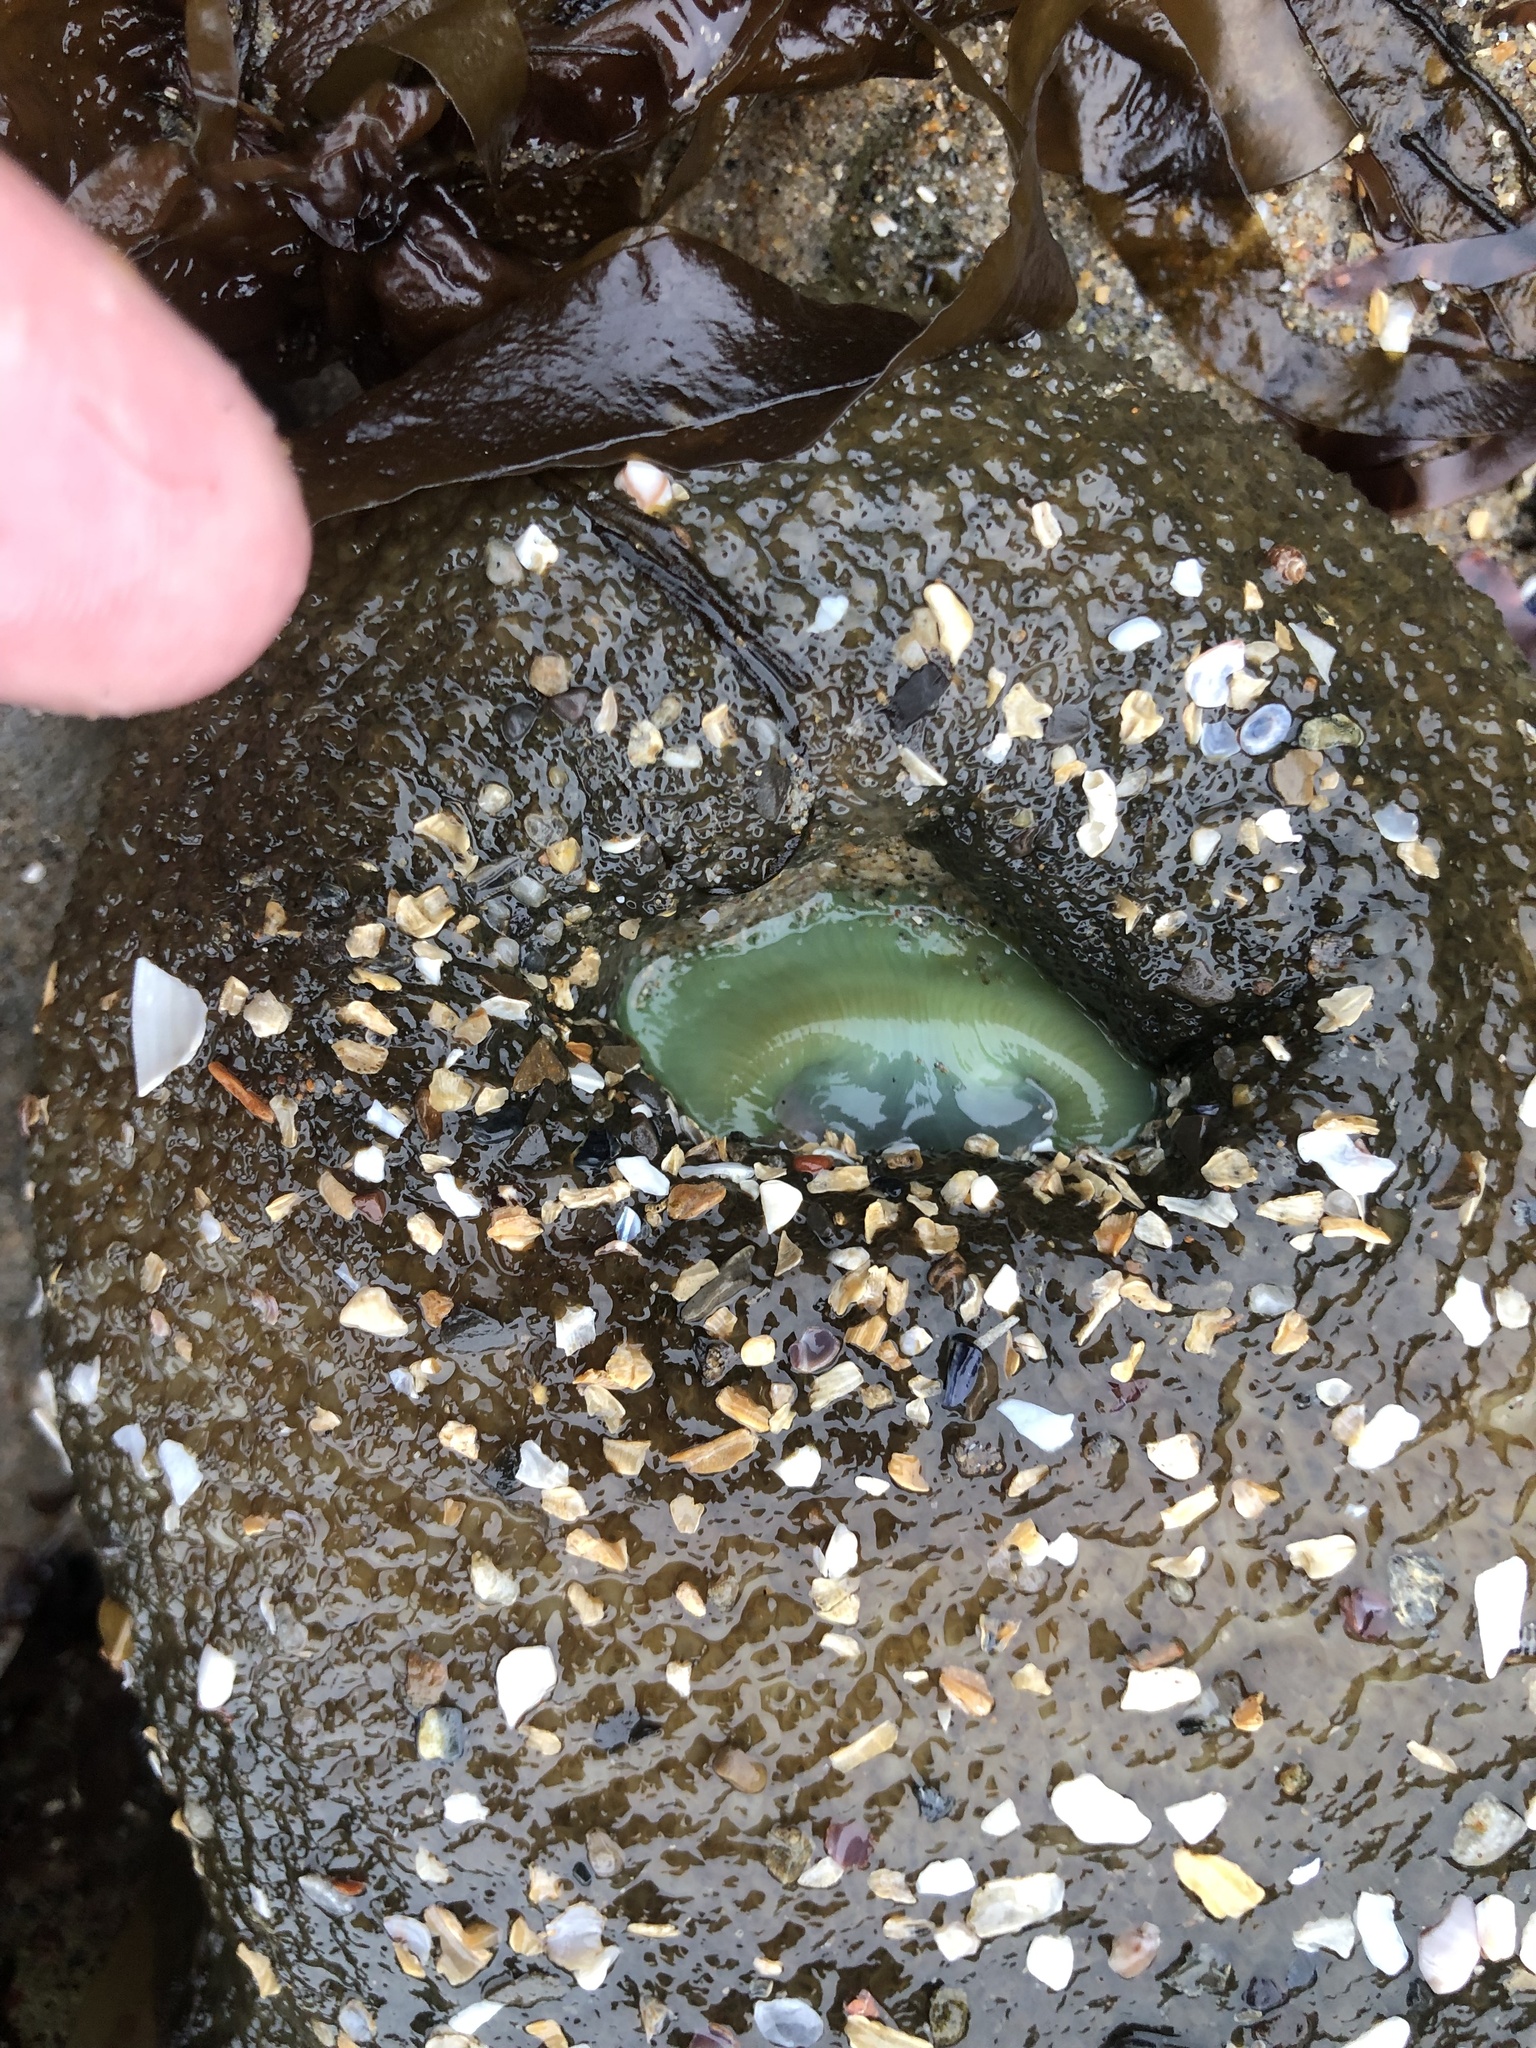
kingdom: Animalia
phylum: Cnidaria
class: Anthozoa
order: Actiniaria
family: Actiniidae
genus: Anthopleura
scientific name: Anthopleura xanthogrammica
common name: Giant green anemone
